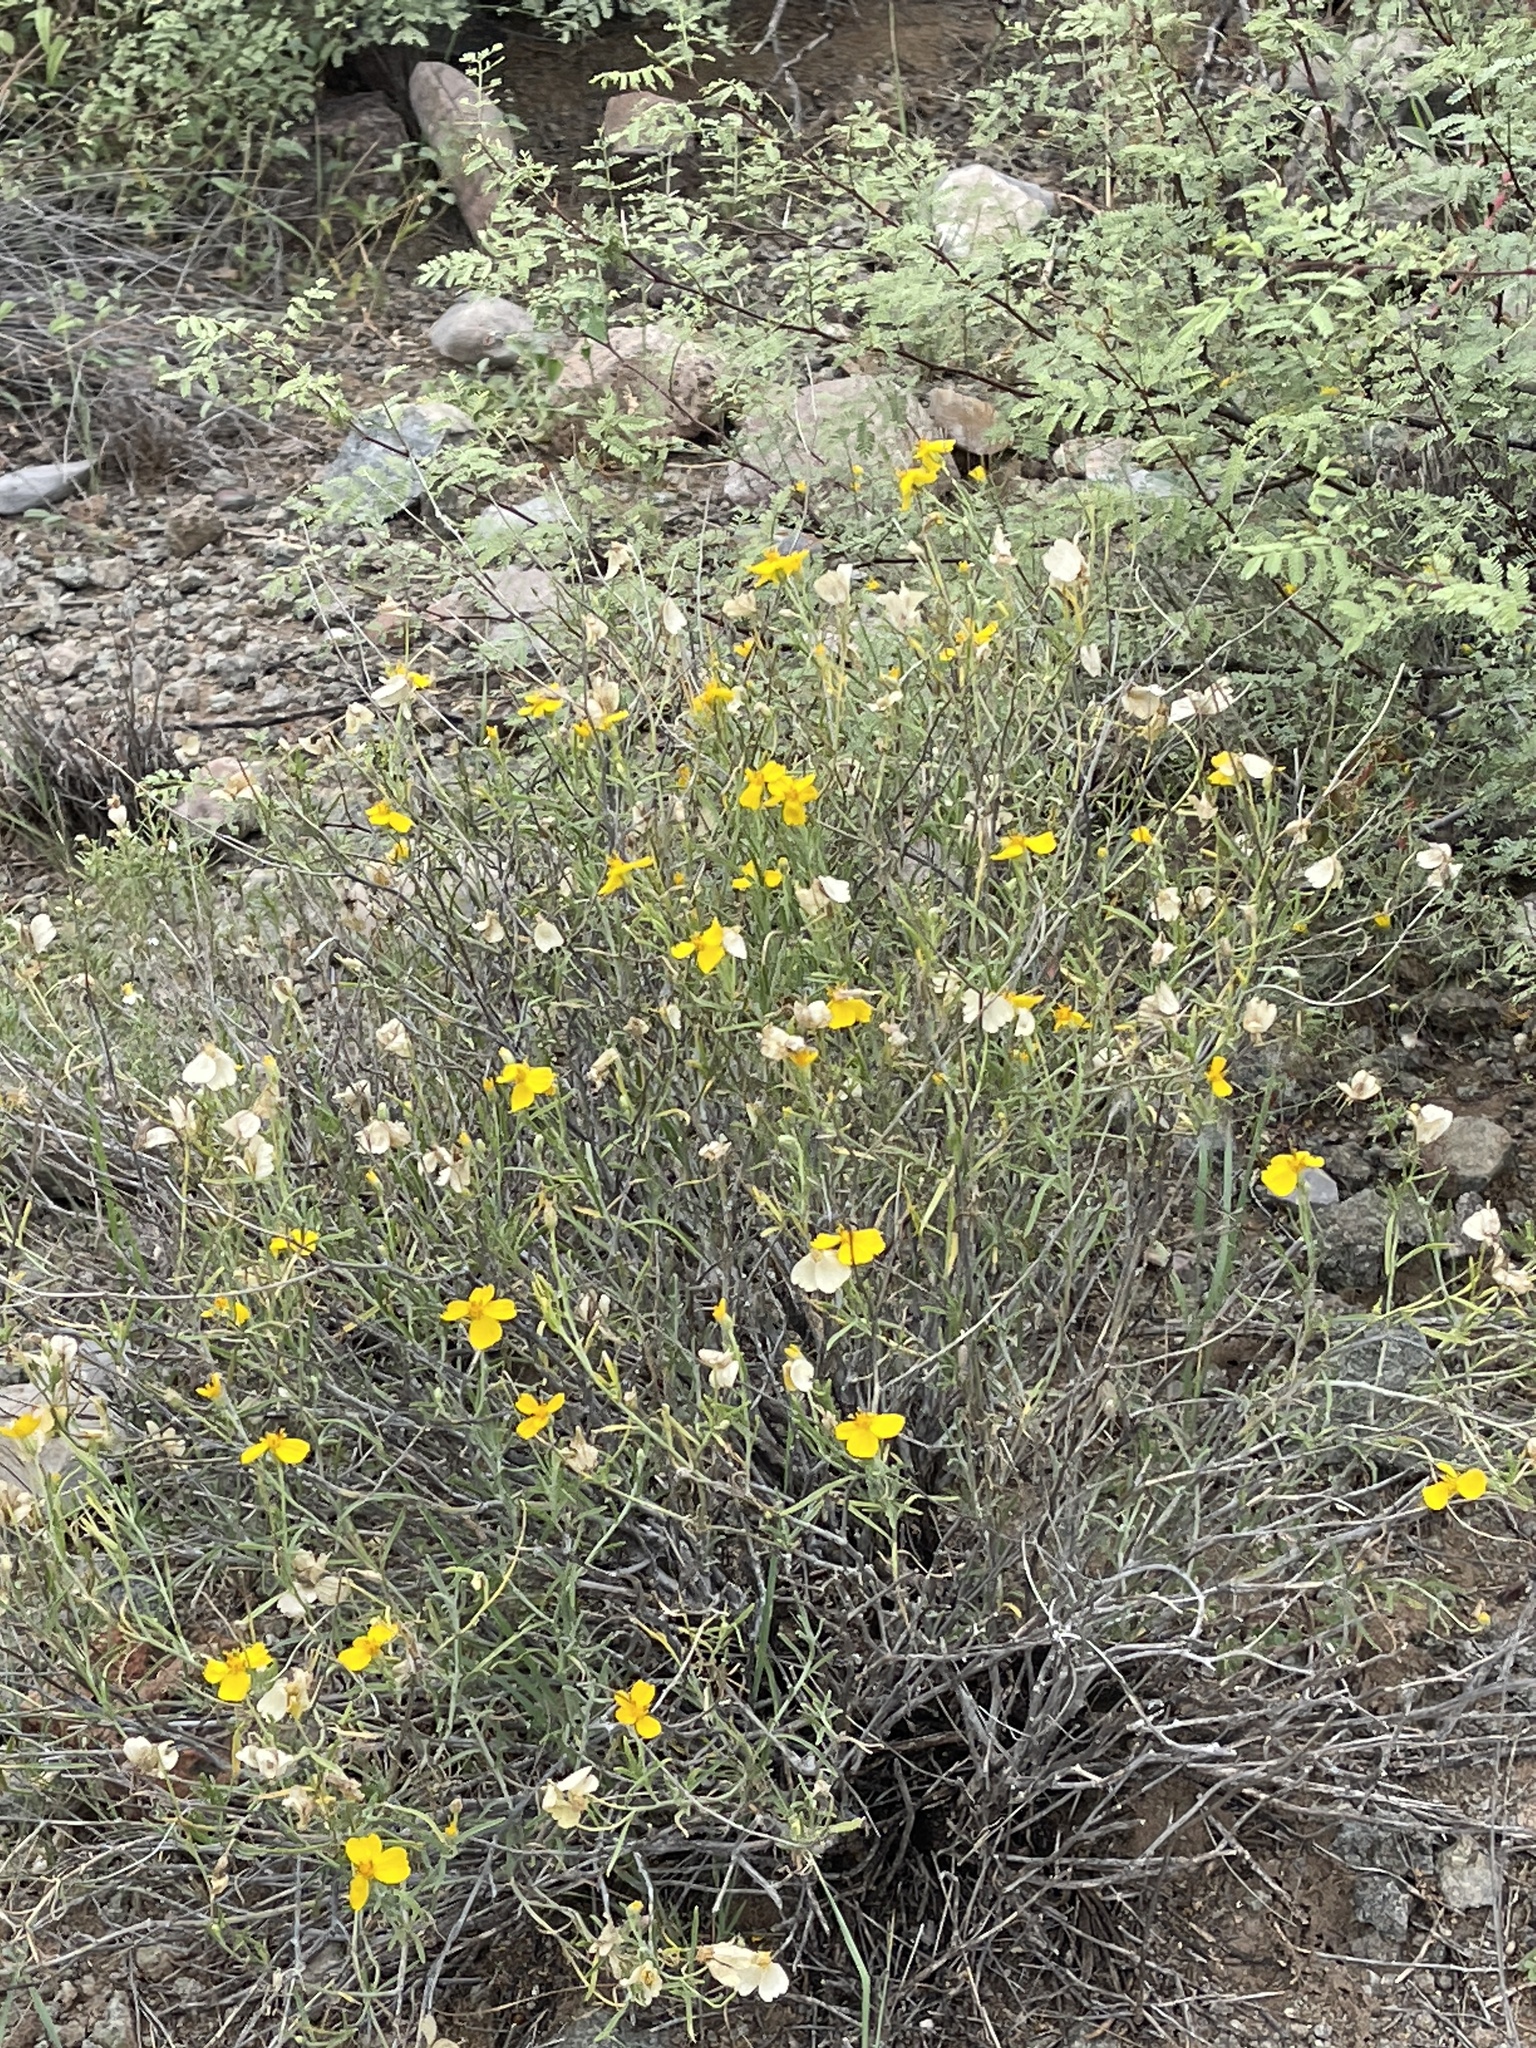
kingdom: Plantae
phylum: Tracheophyta
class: Magnoliopsida
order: Asterales
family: Asteraceae
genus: Psilostrophe
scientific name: Psilostrophe cooperi
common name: White-stem paper-flower
